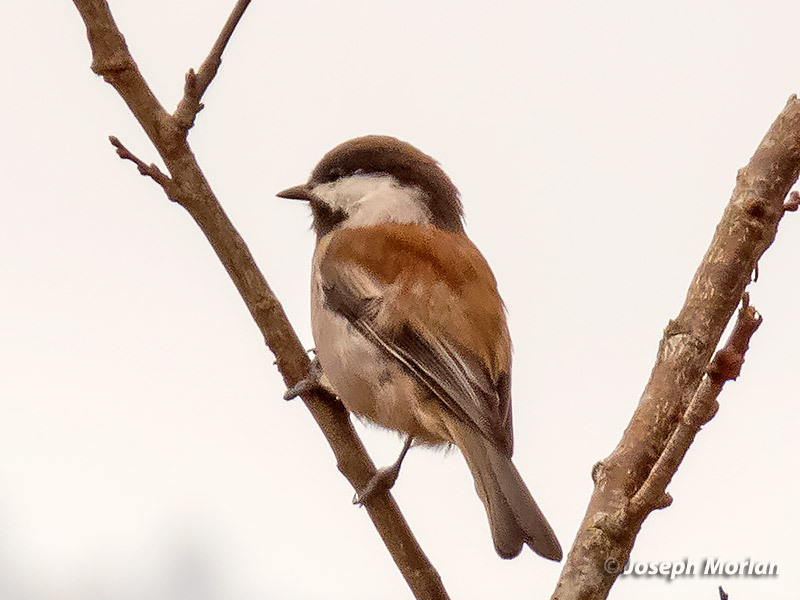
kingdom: Animalia
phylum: Chordata
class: Aves
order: Passeriformes
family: Paridae
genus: Poecile
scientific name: Poecile rufescens
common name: Chestnut-backed chickadee
